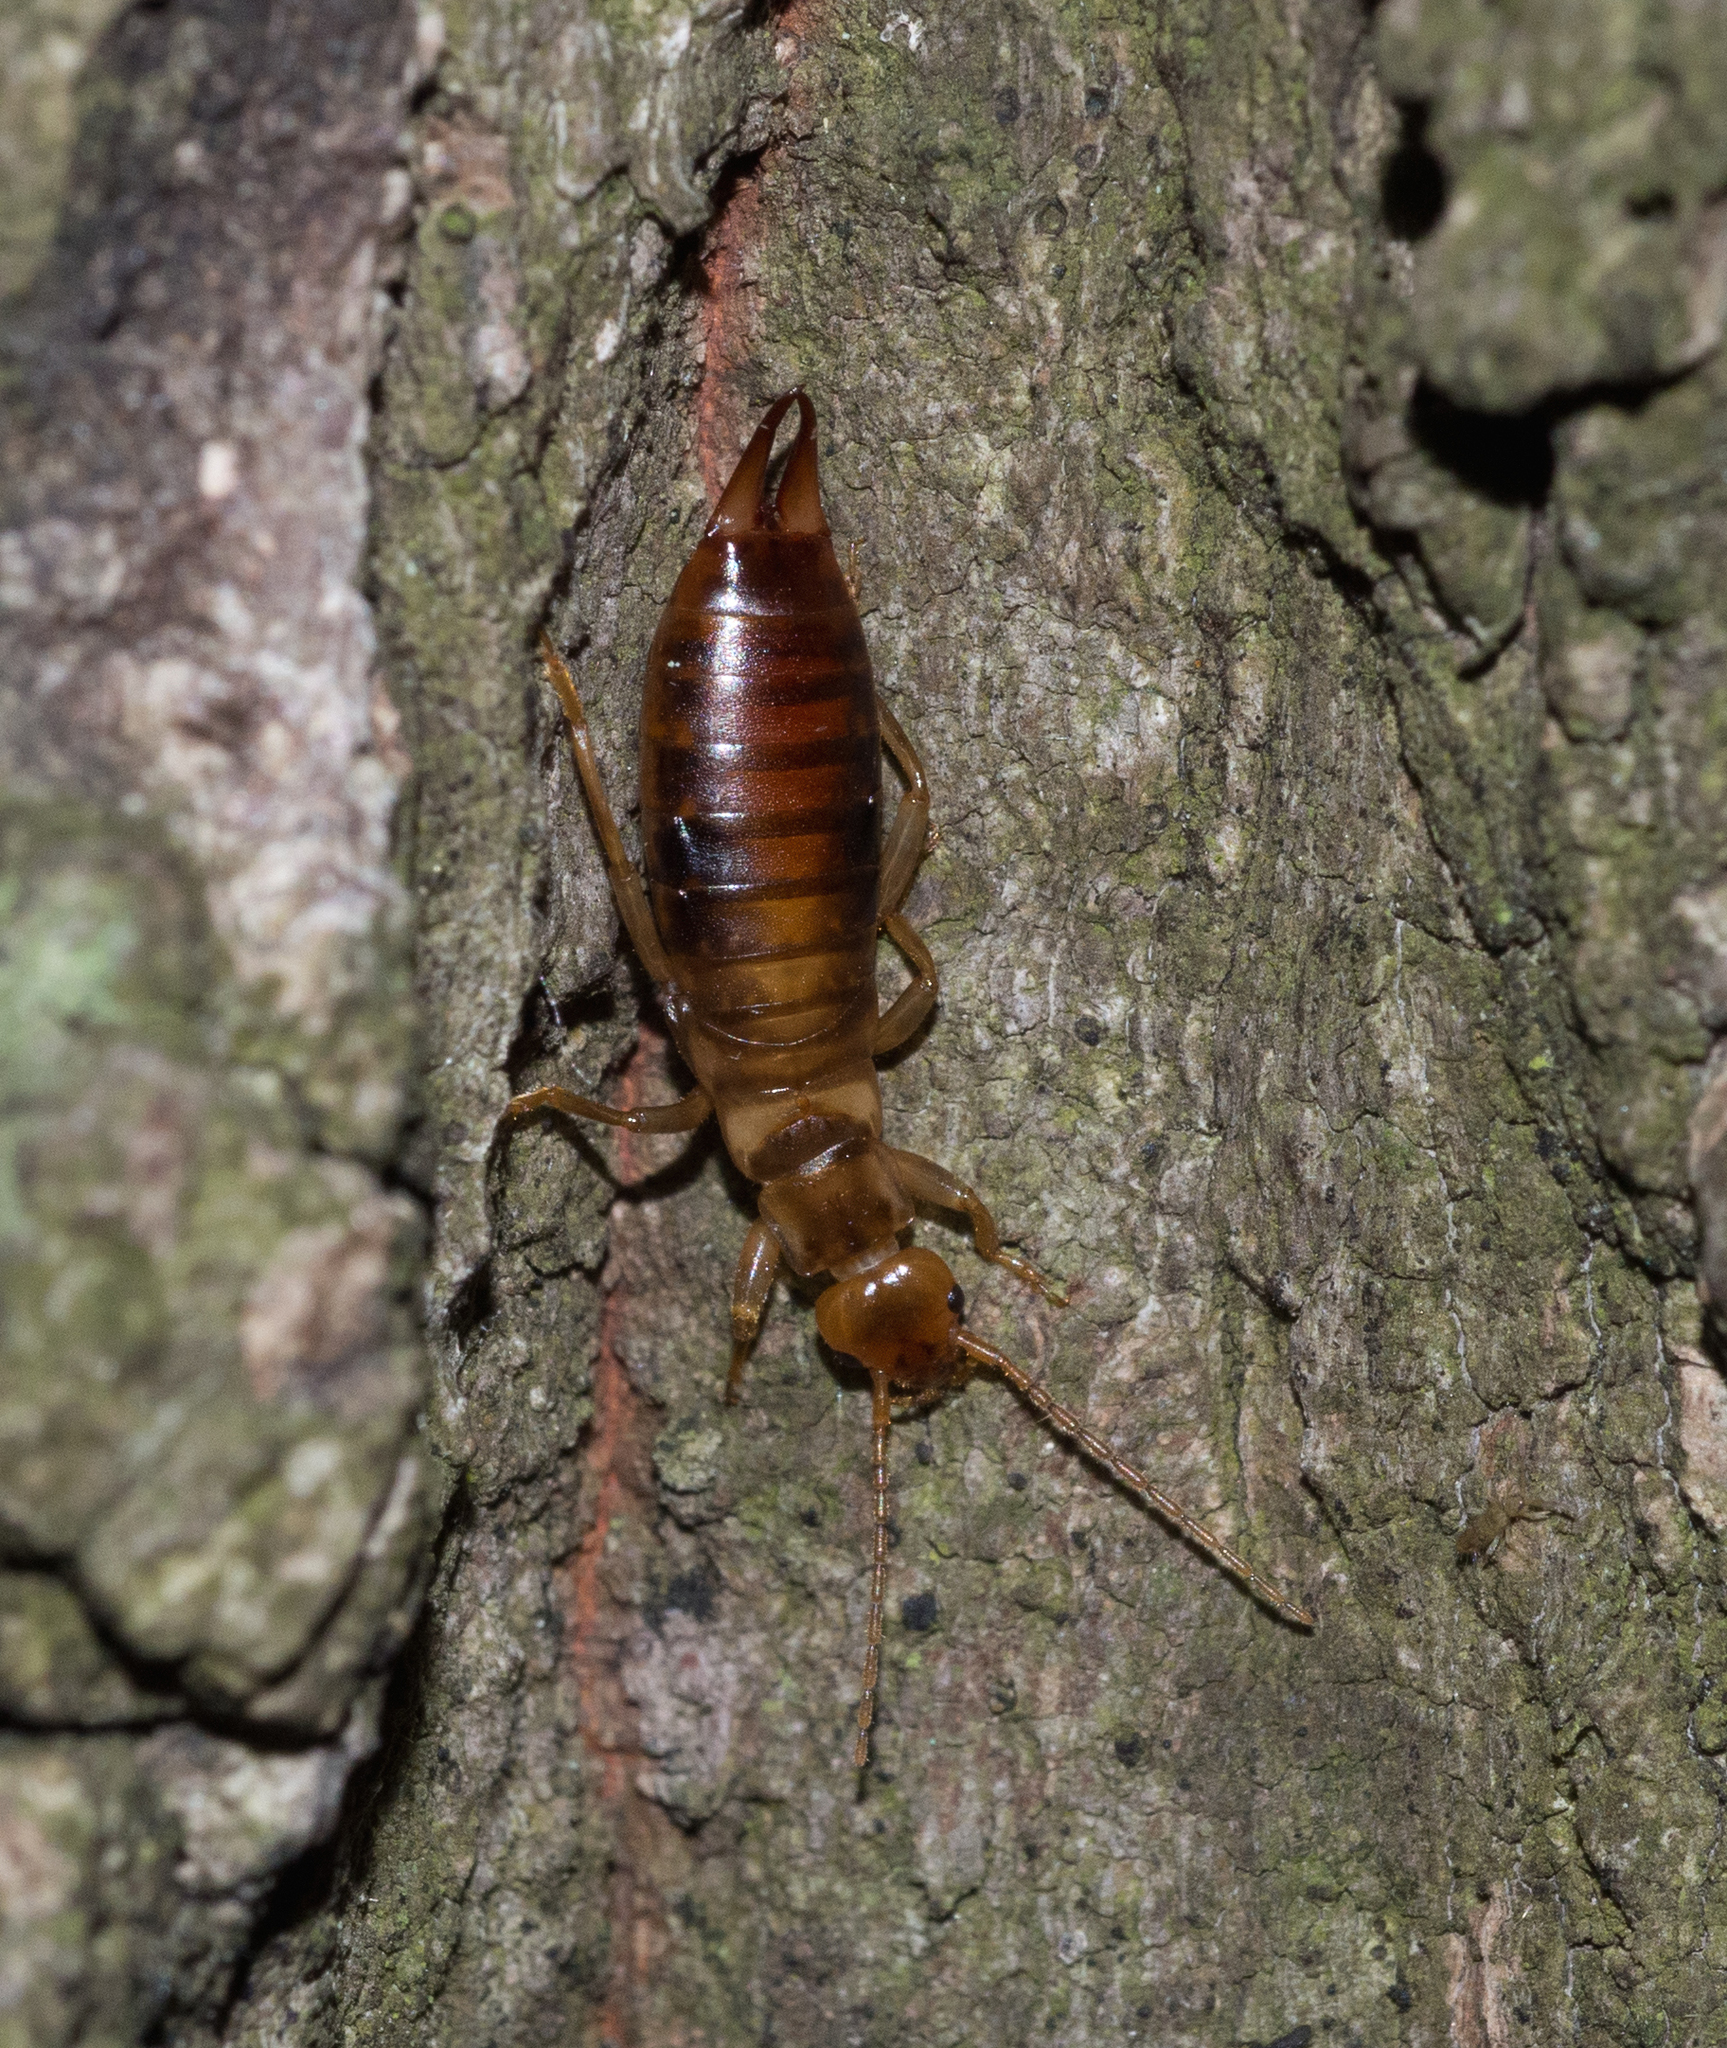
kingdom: Animalia
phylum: Arthropoda
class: Insecta
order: Dermaptera
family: Forficulidae
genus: Chelidurella
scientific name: Chelidurella acanthopygia
